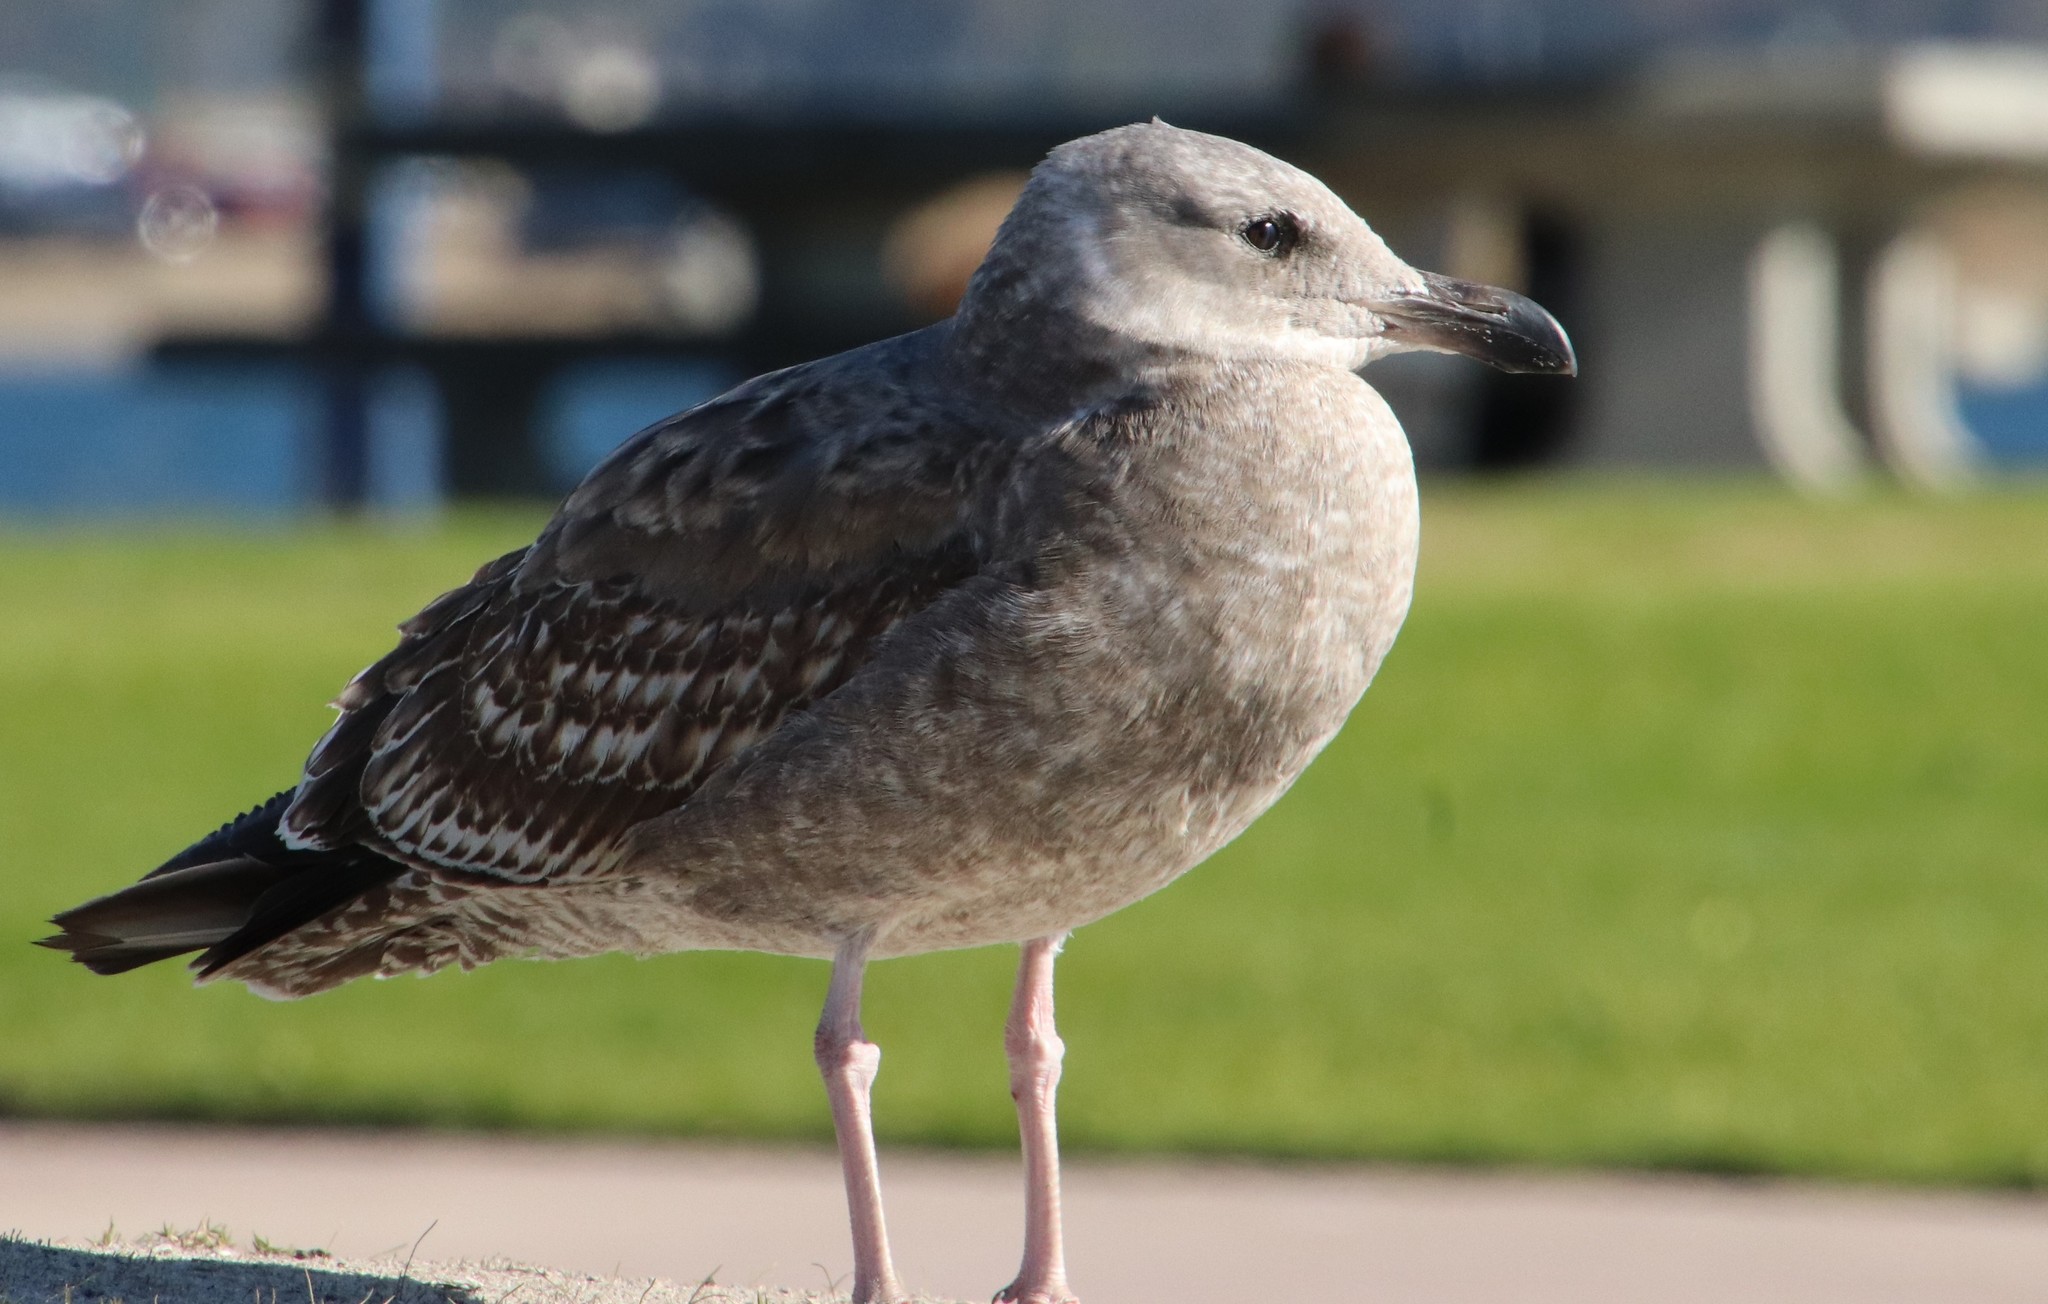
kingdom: Animalia
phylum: Chordata
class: Aves
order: Charadriiformes
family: Laridae
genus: Larus
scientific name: Larus occidentalis
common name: Western gull
